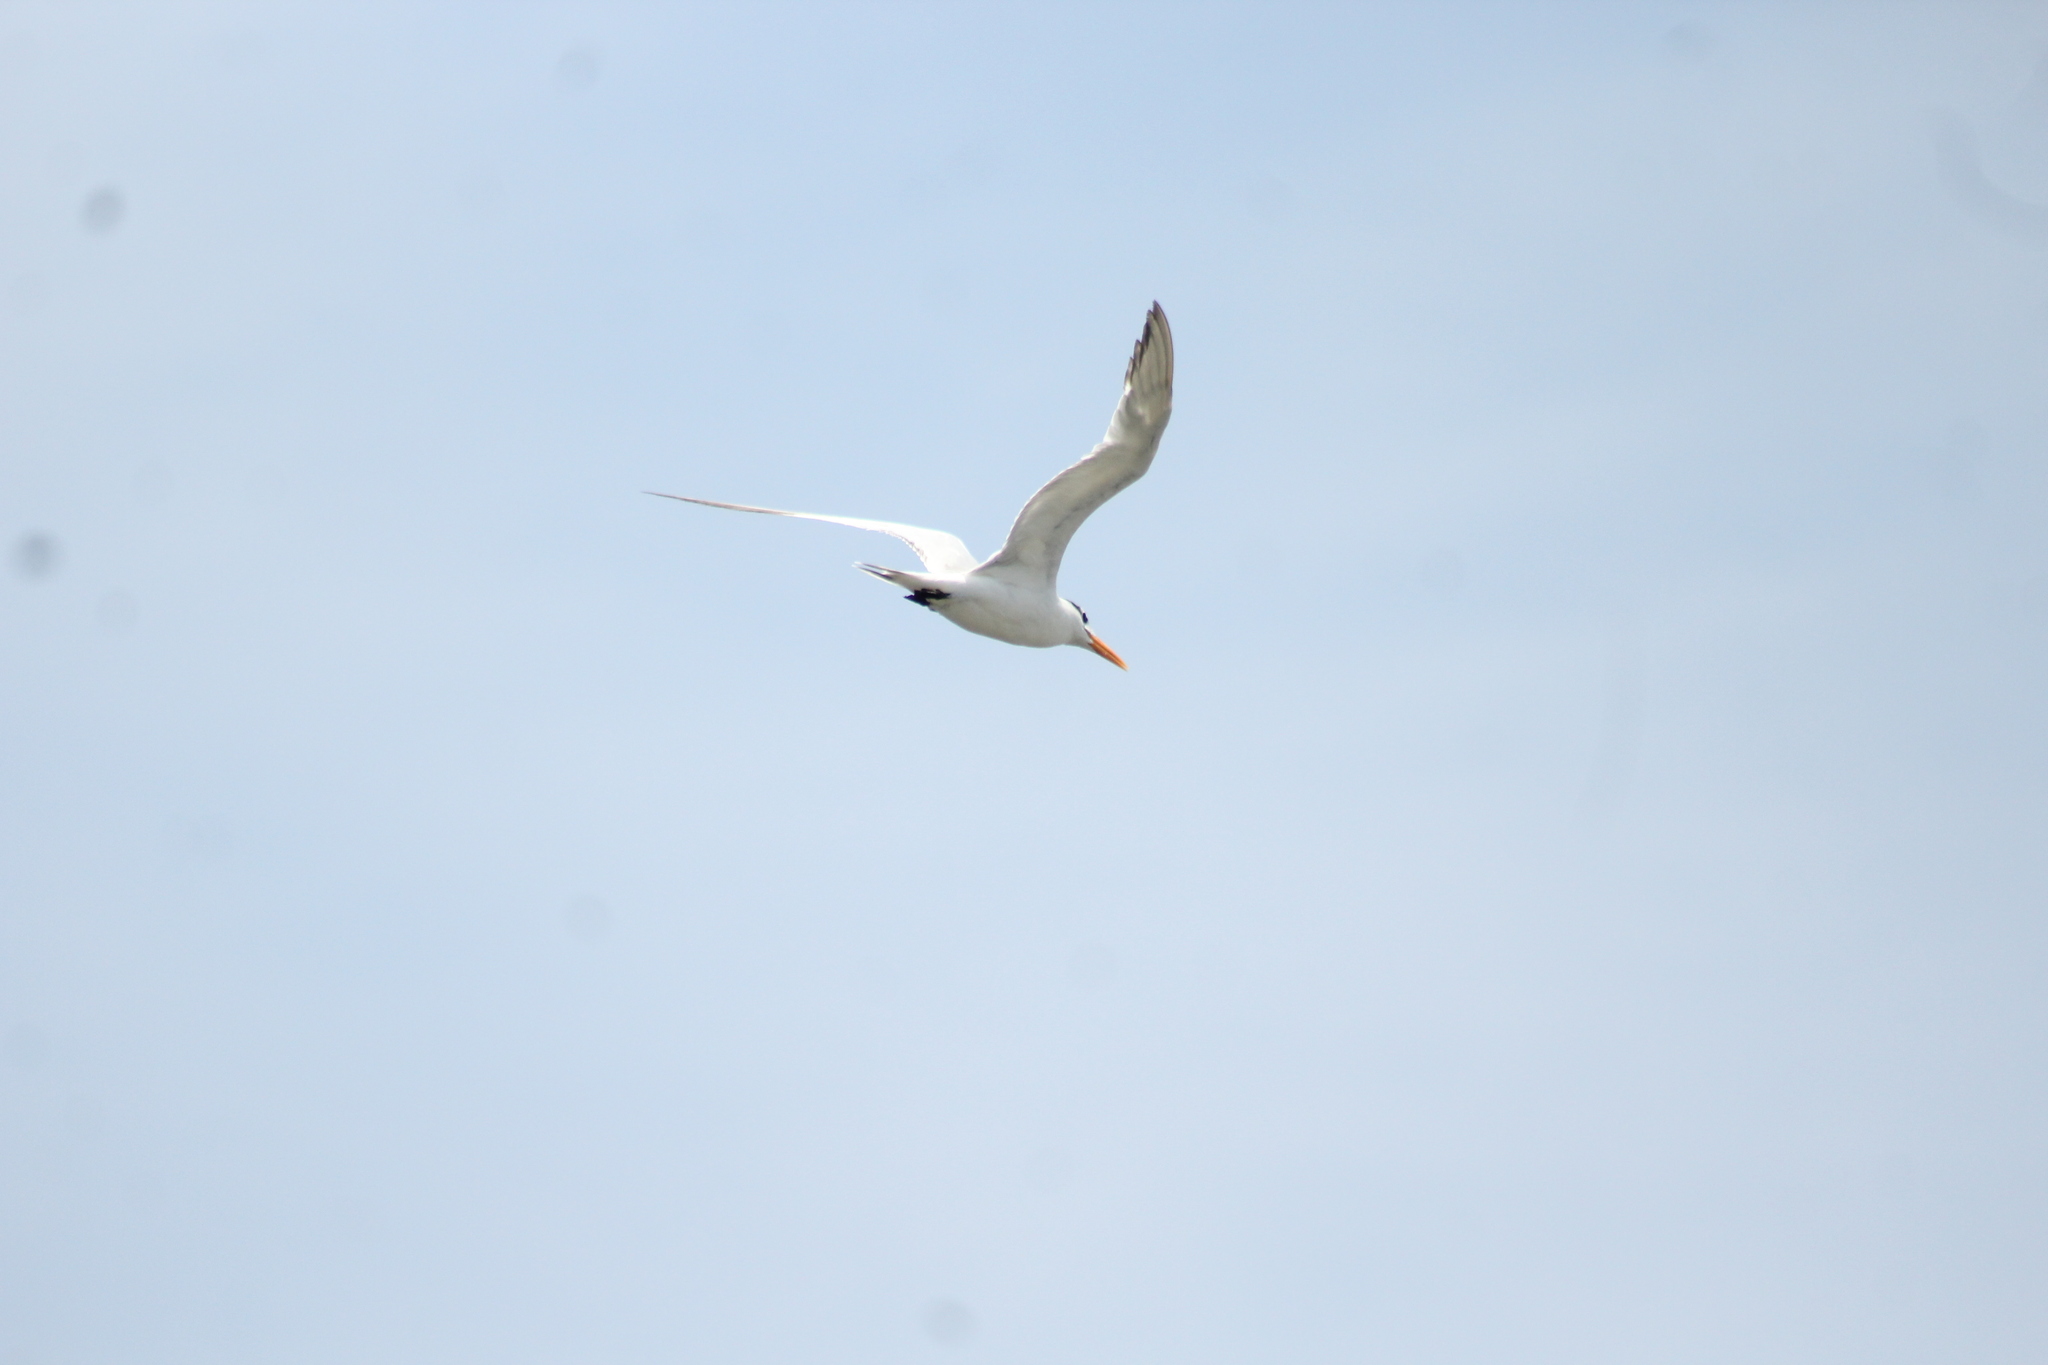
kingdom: Animalia
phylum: Chordata
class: Aves
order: Charadriiformes
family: Laridae
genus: Thalasseus
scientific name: Thalasseus maximus
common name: Royal tern
